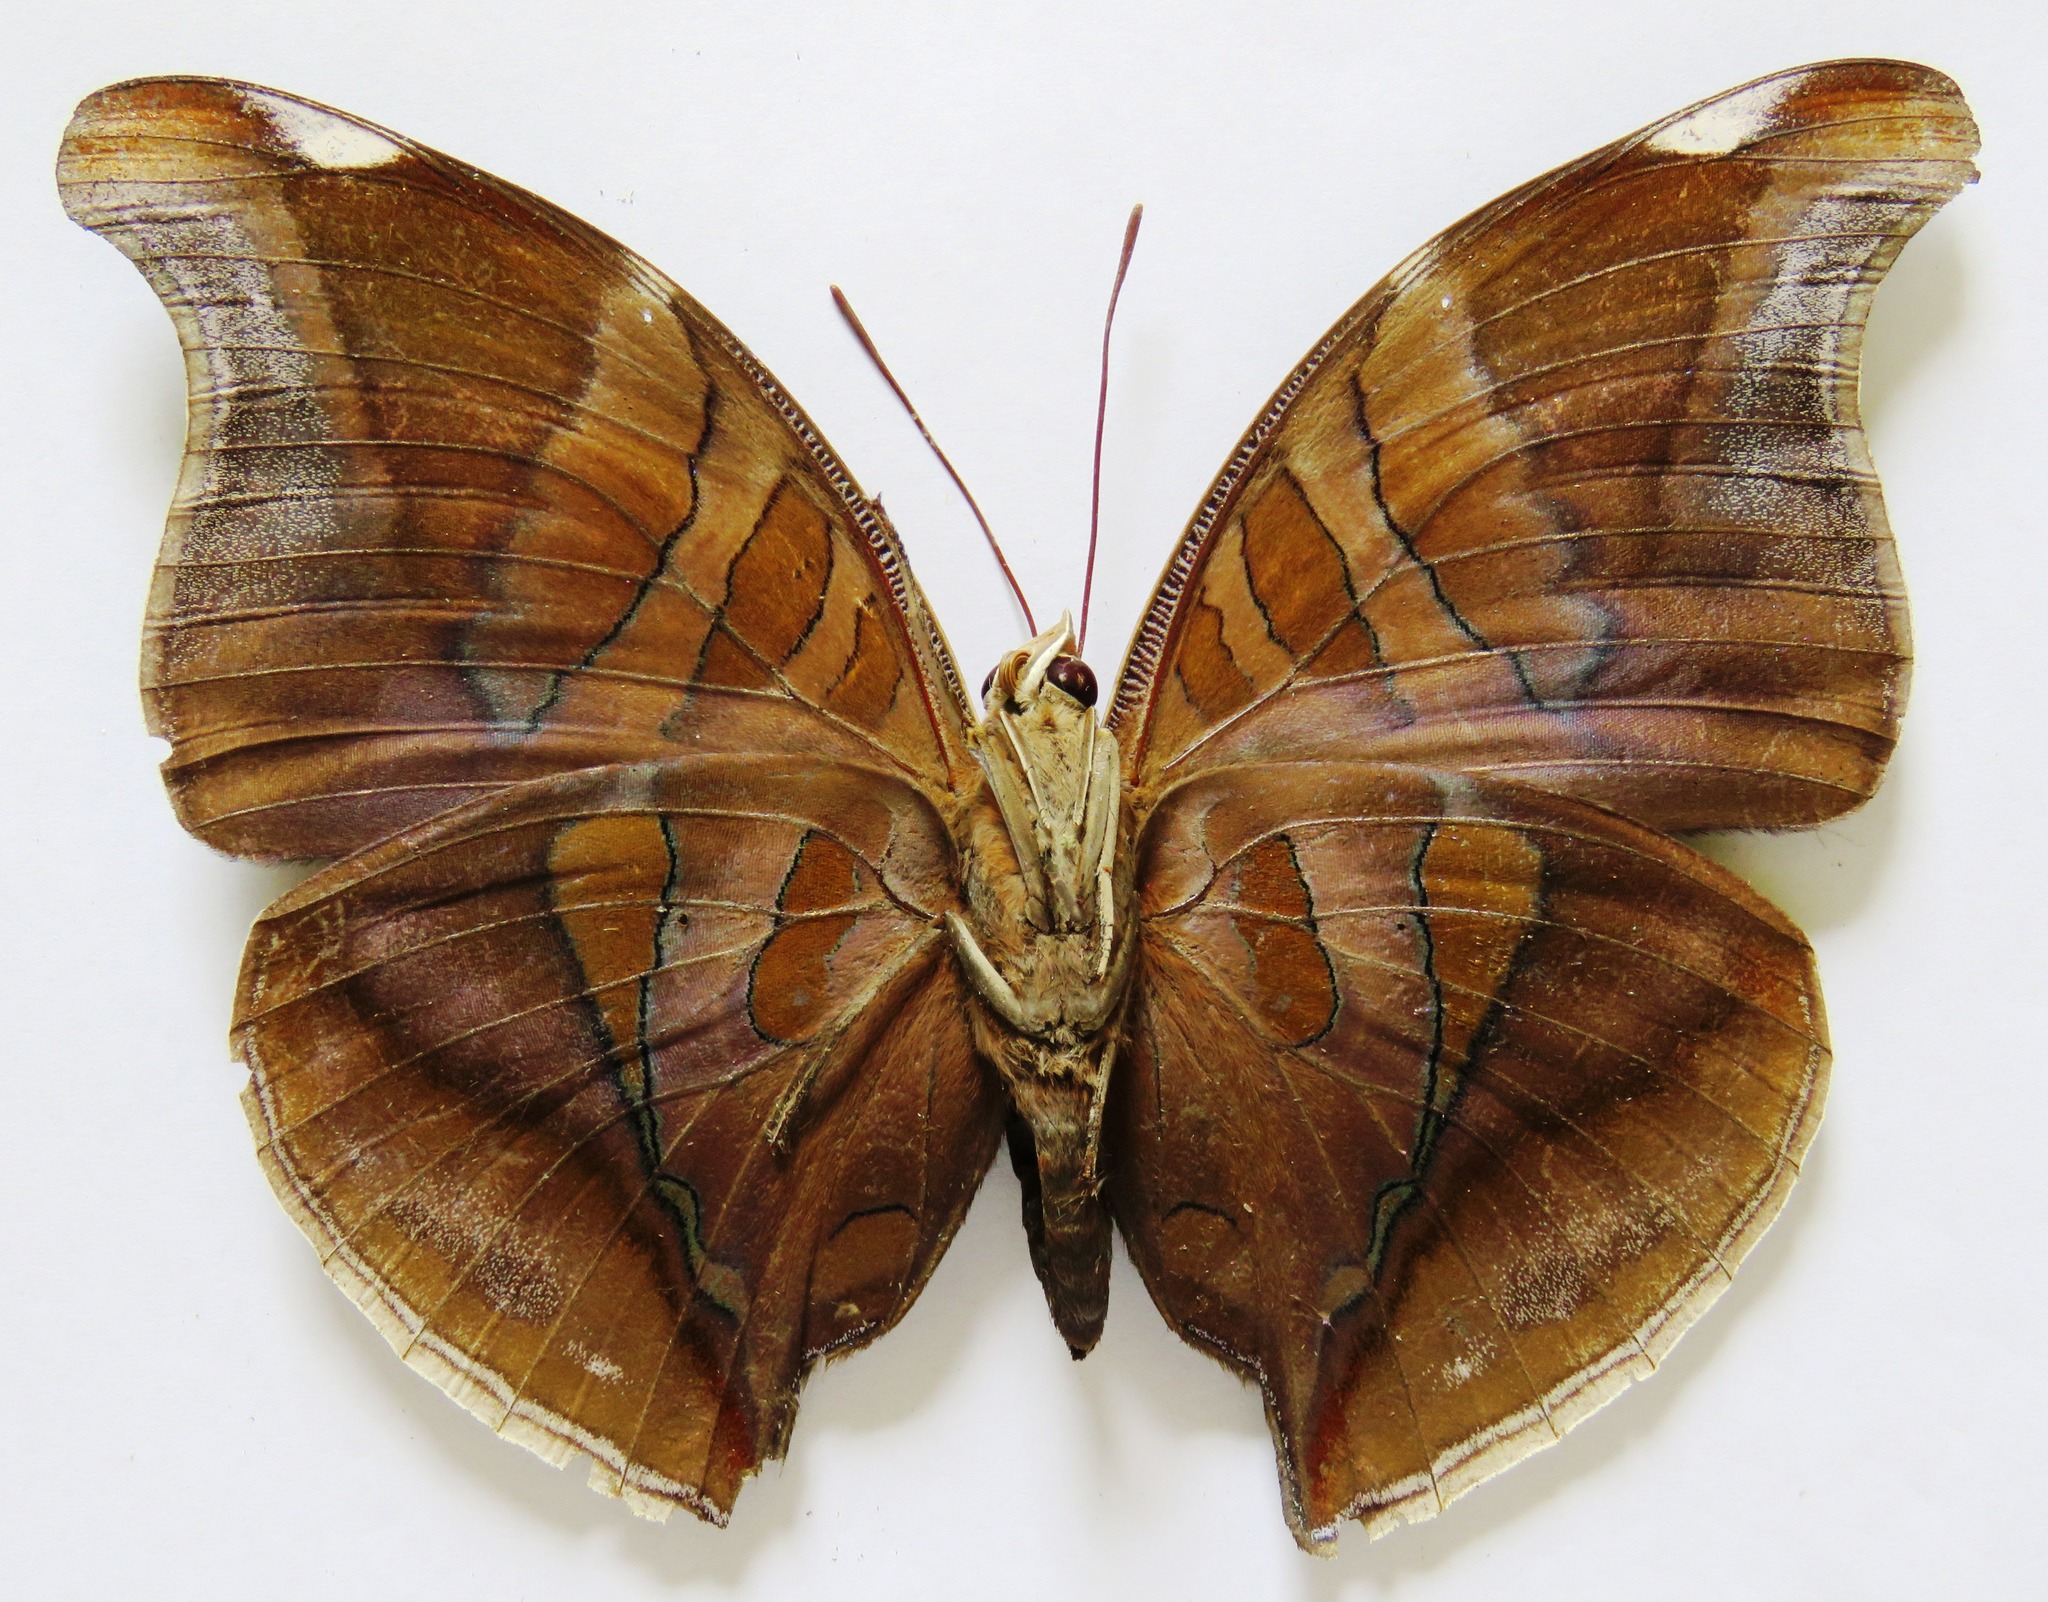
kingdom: Animalia
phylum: Arthropoda
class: Insecta
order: Lepidoptera
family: Nymphalidae
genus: Historis
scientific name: Historis odius
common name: Orion cecropian
